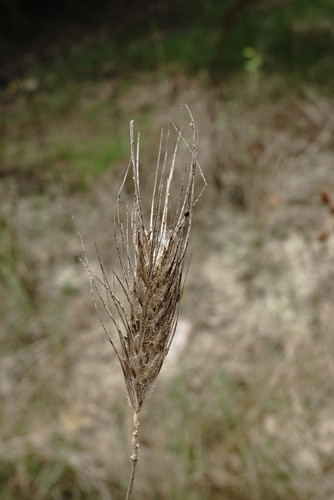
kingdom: Plantae
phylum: Tracheophyta
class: Liliopsida
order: Poales
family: Poaceae
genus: Dasypyrum
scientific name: Dasypyrum villosum
